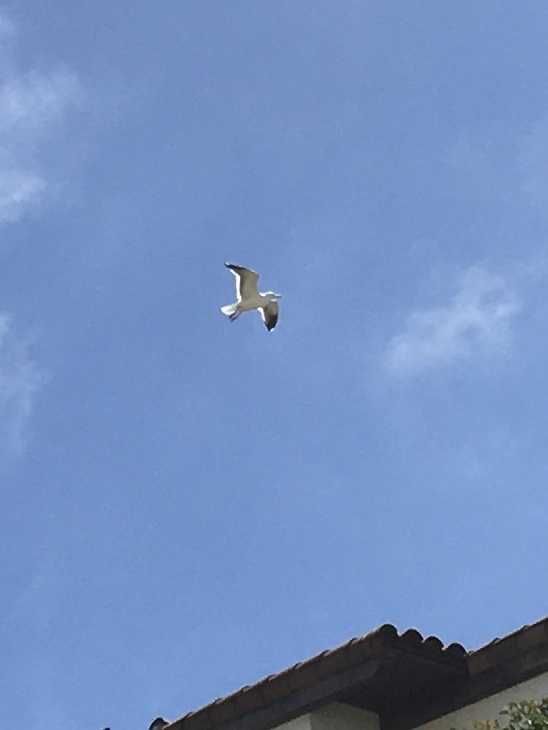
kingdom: Animalia
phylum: Chordata
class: Aves
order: Charadriiformes
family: Laridae
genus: Larus
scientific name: Larus occidentalis
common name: Western gull
